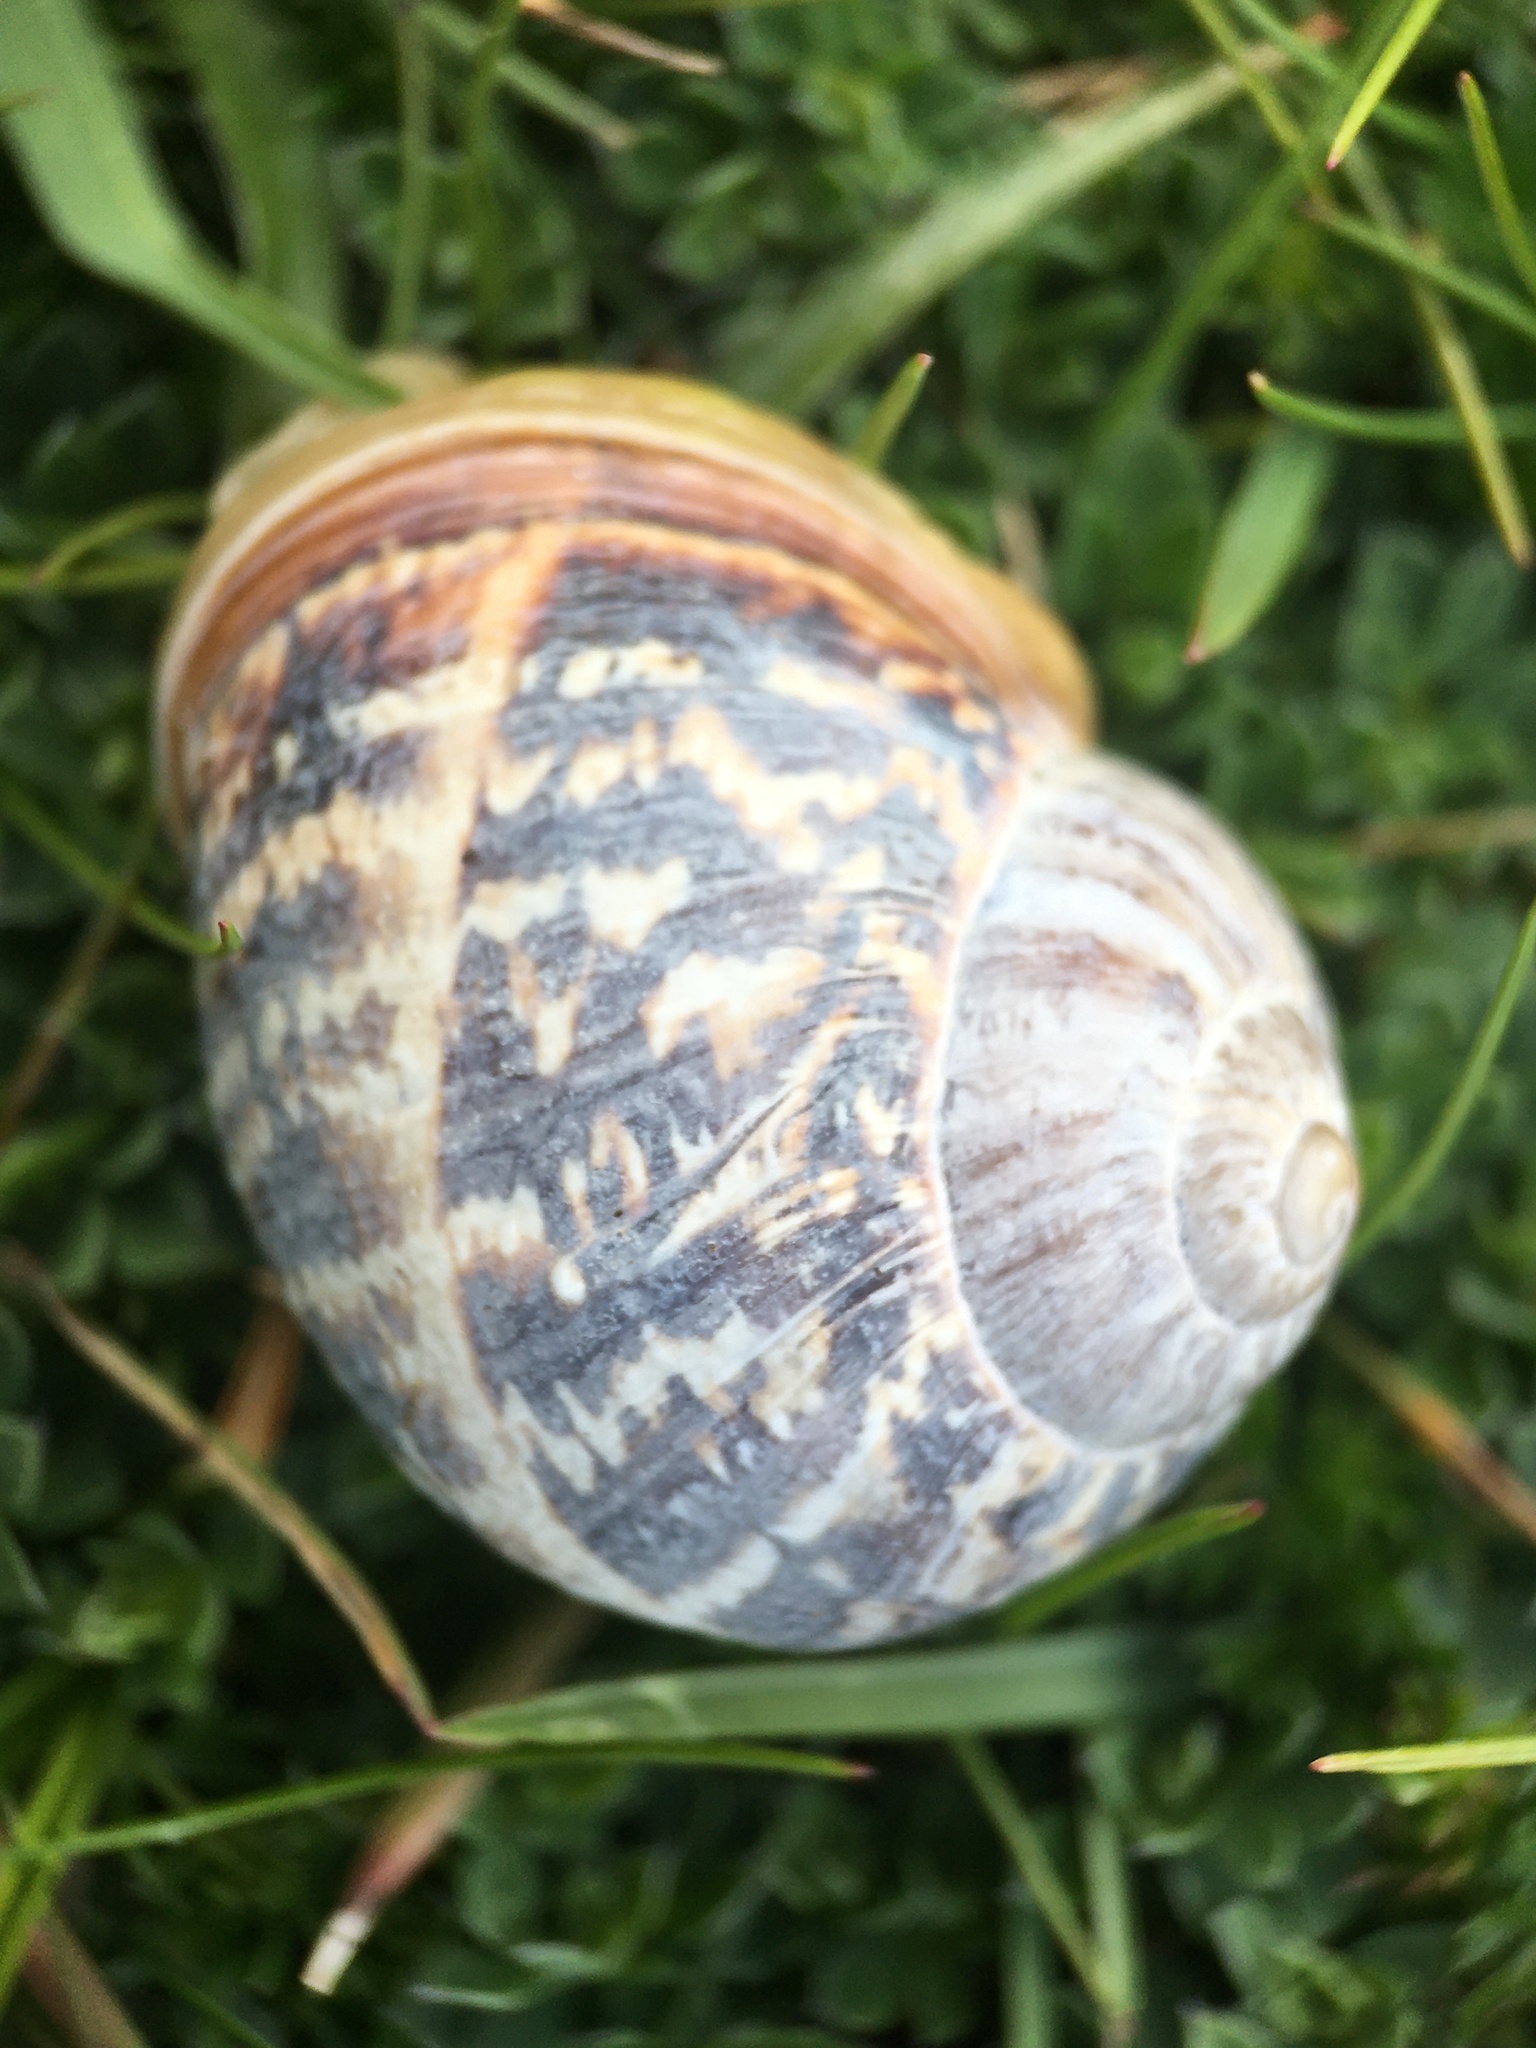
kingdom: Animalia
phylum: Mollusca
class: Gastropoda
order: Stylommatophora
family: Helicidae
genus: Cornu
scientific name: Cornu aspersum
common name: Brown garden snail
